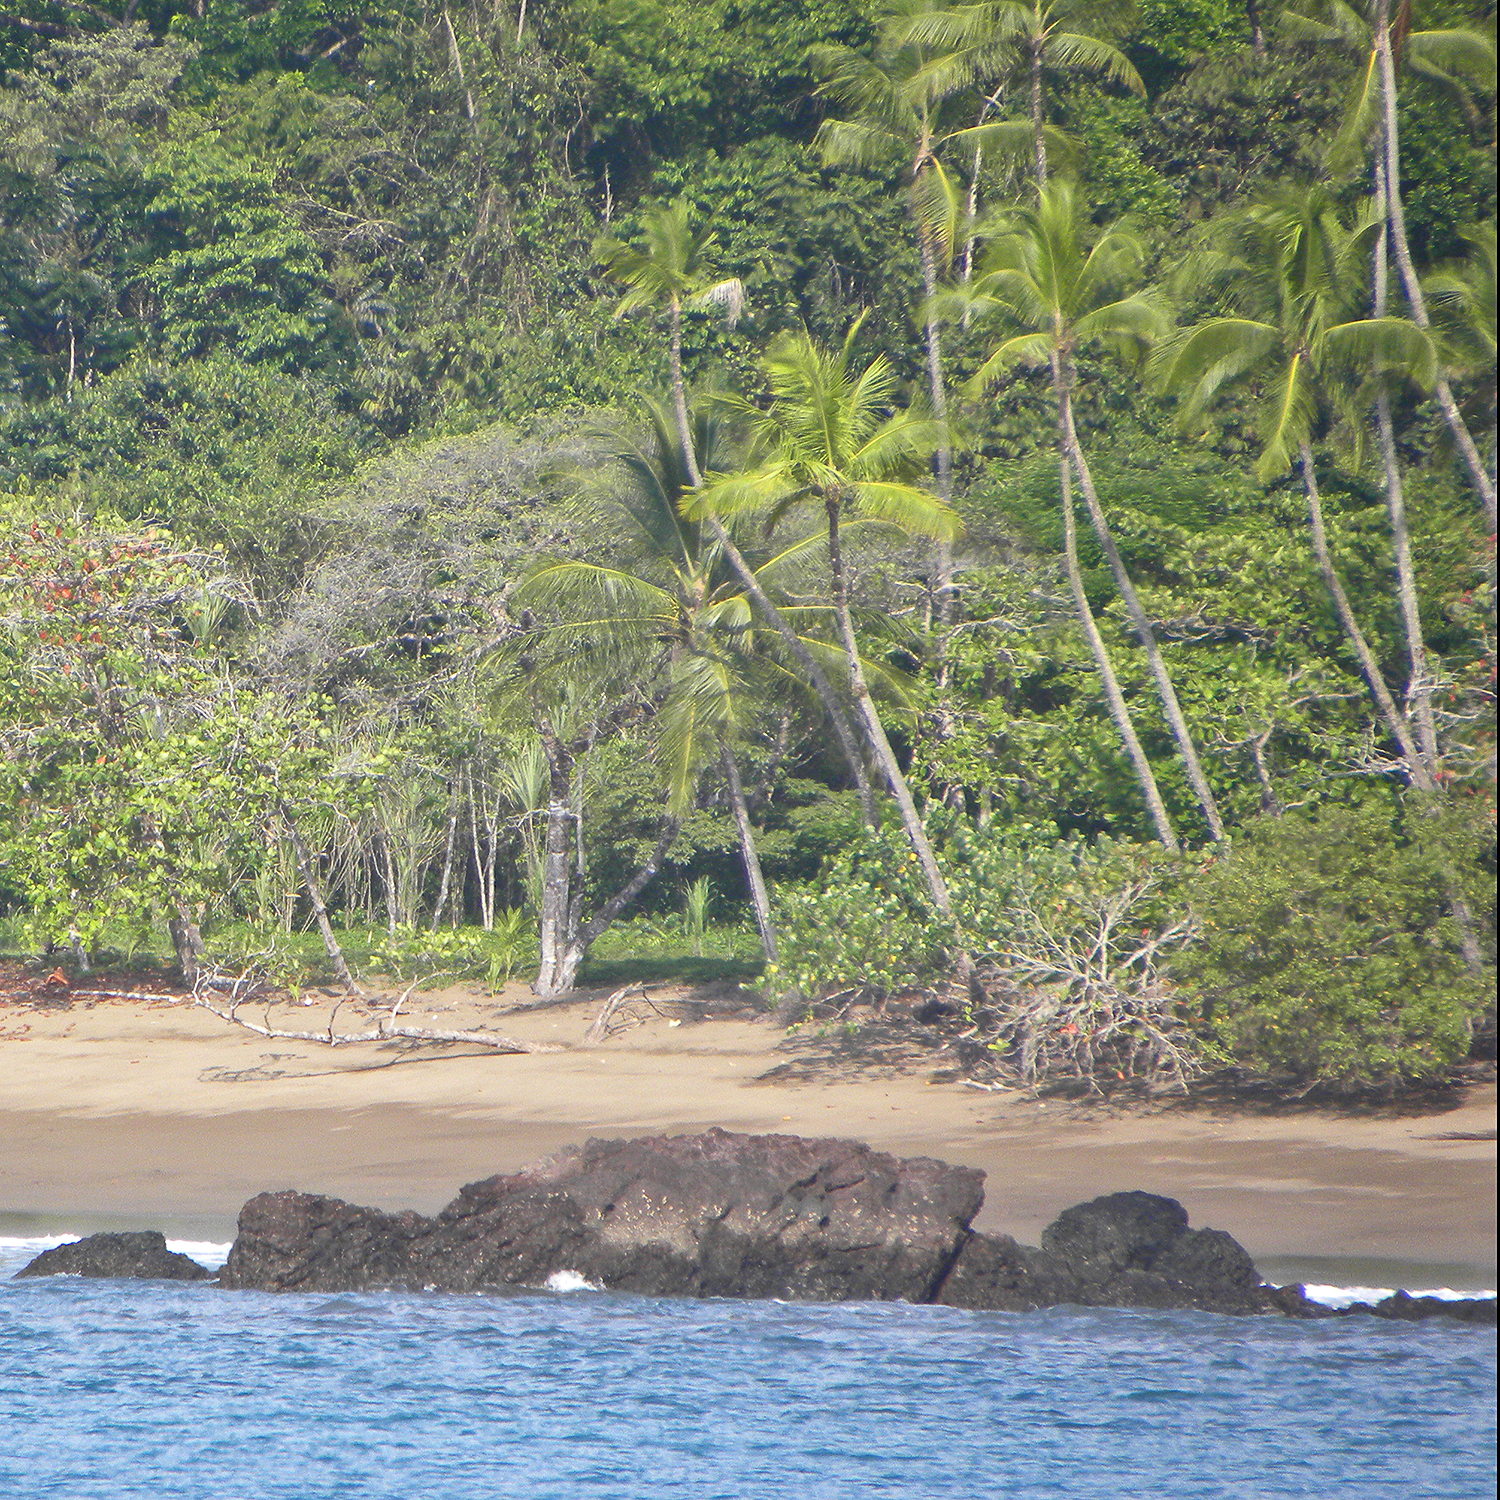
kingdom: Plantae
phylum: Tracheophyta
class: Liliopsida
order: Arecales
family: Arecaceae
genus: Cocos
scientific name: Cocos nucifera
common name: Coconut palm
